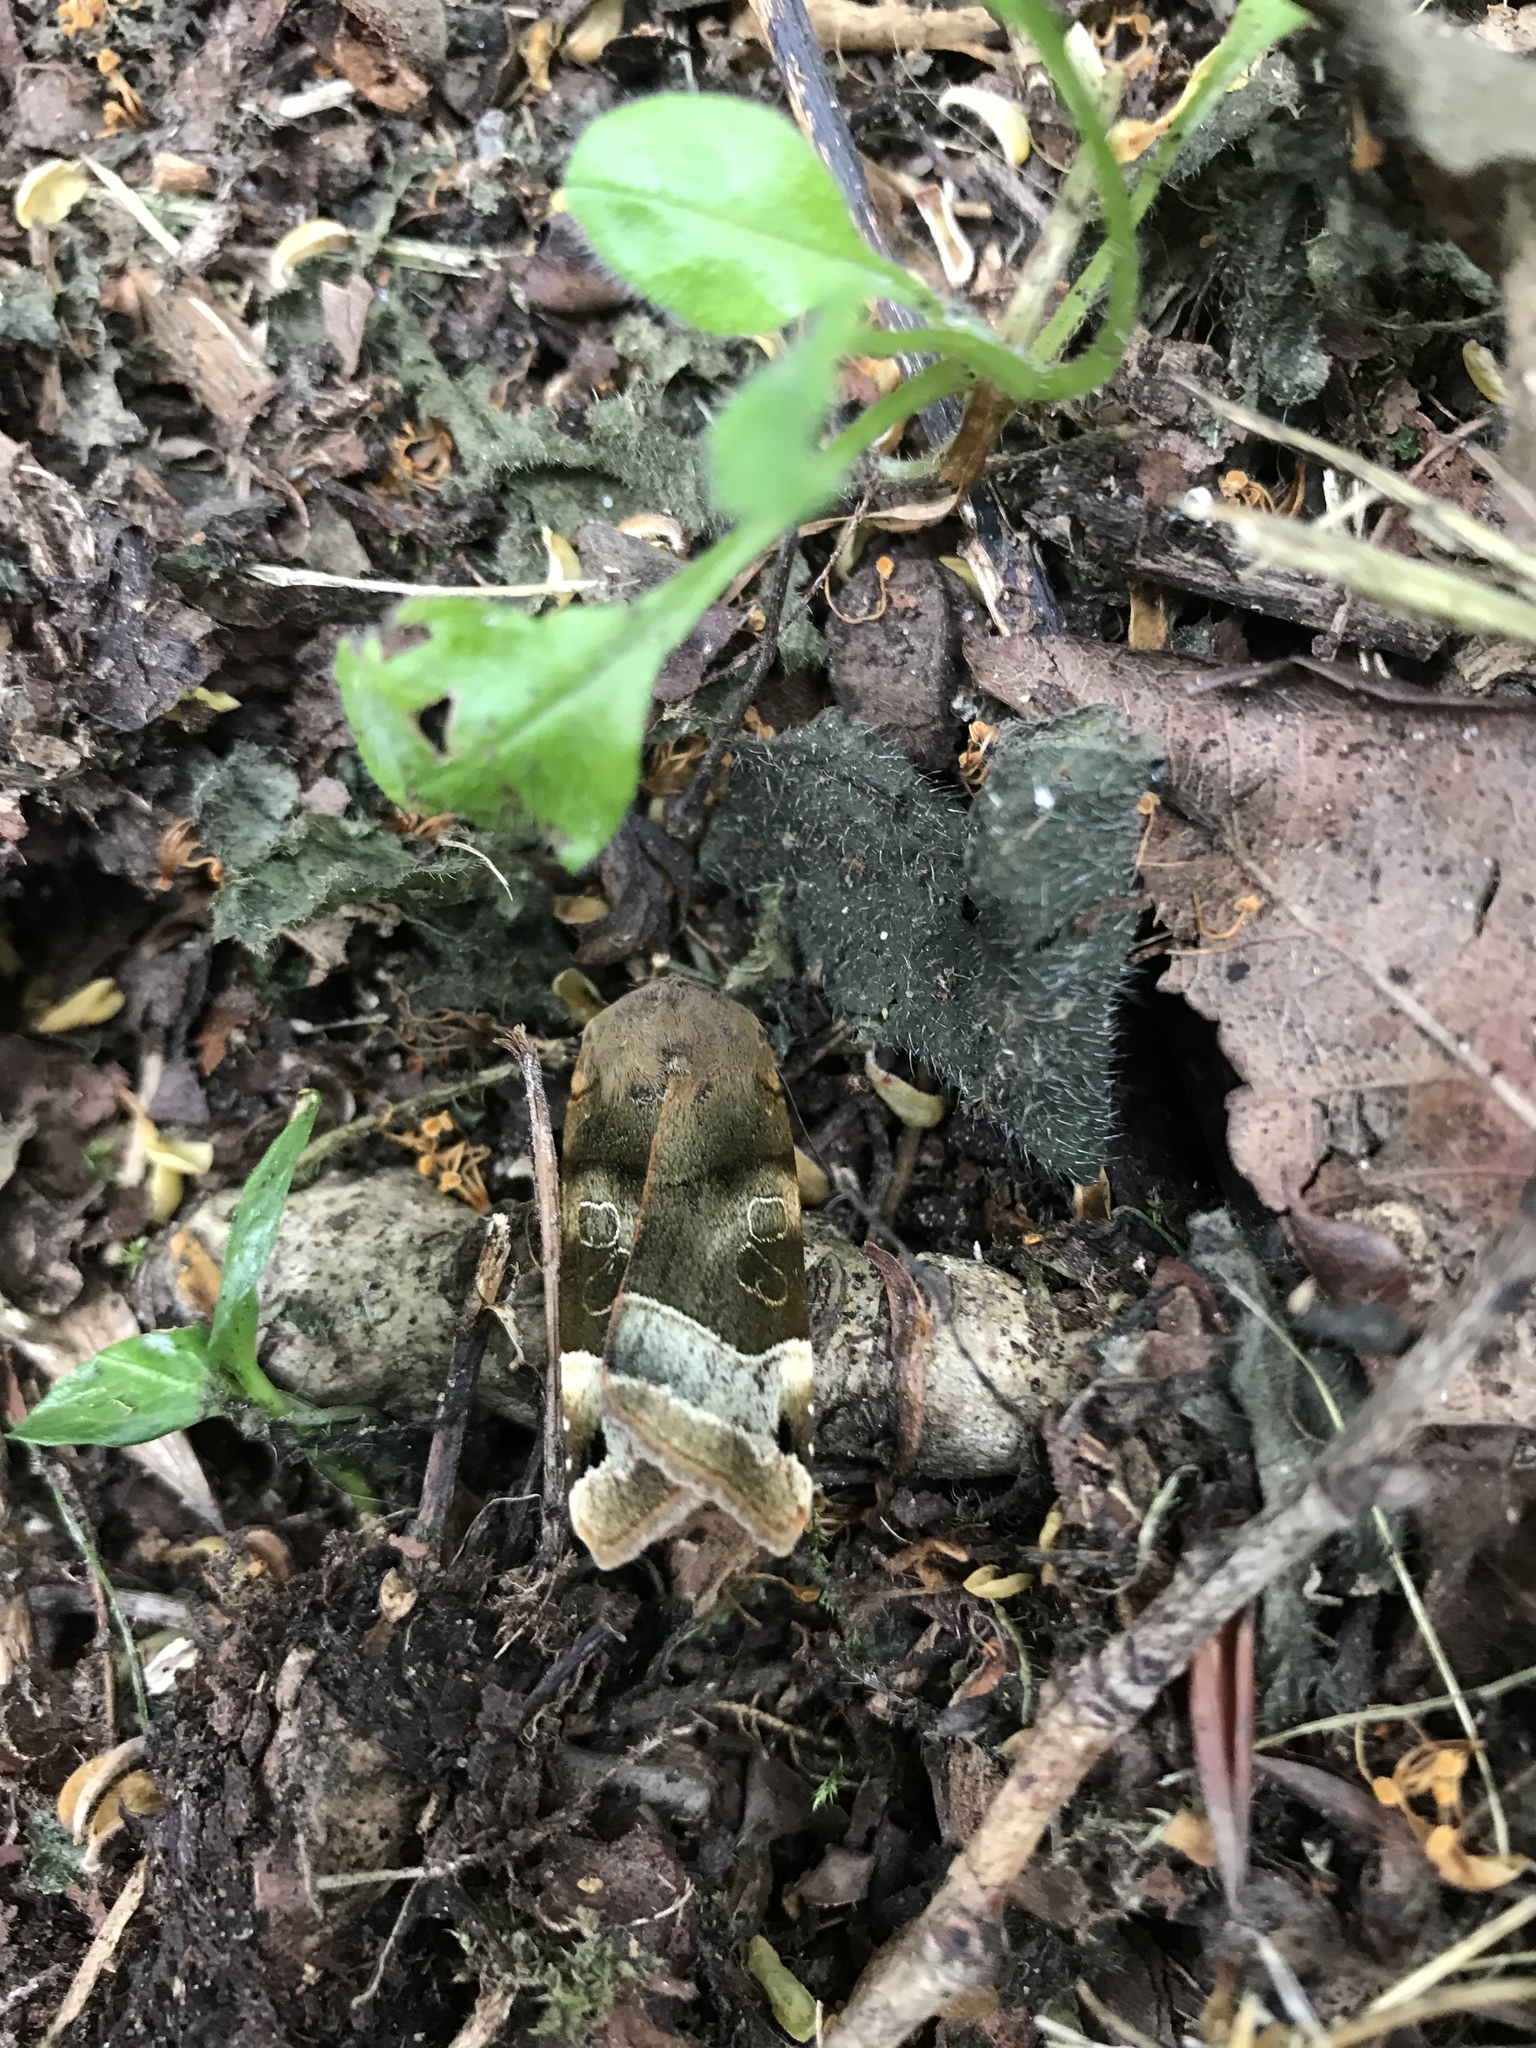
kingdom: Animalia
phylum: Arthropoda
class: Insecta
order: Lepidoptera
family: Noctuidae
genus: Noctua
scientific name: Noctua fimbriata
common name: Broad-bordered yellow underwing
